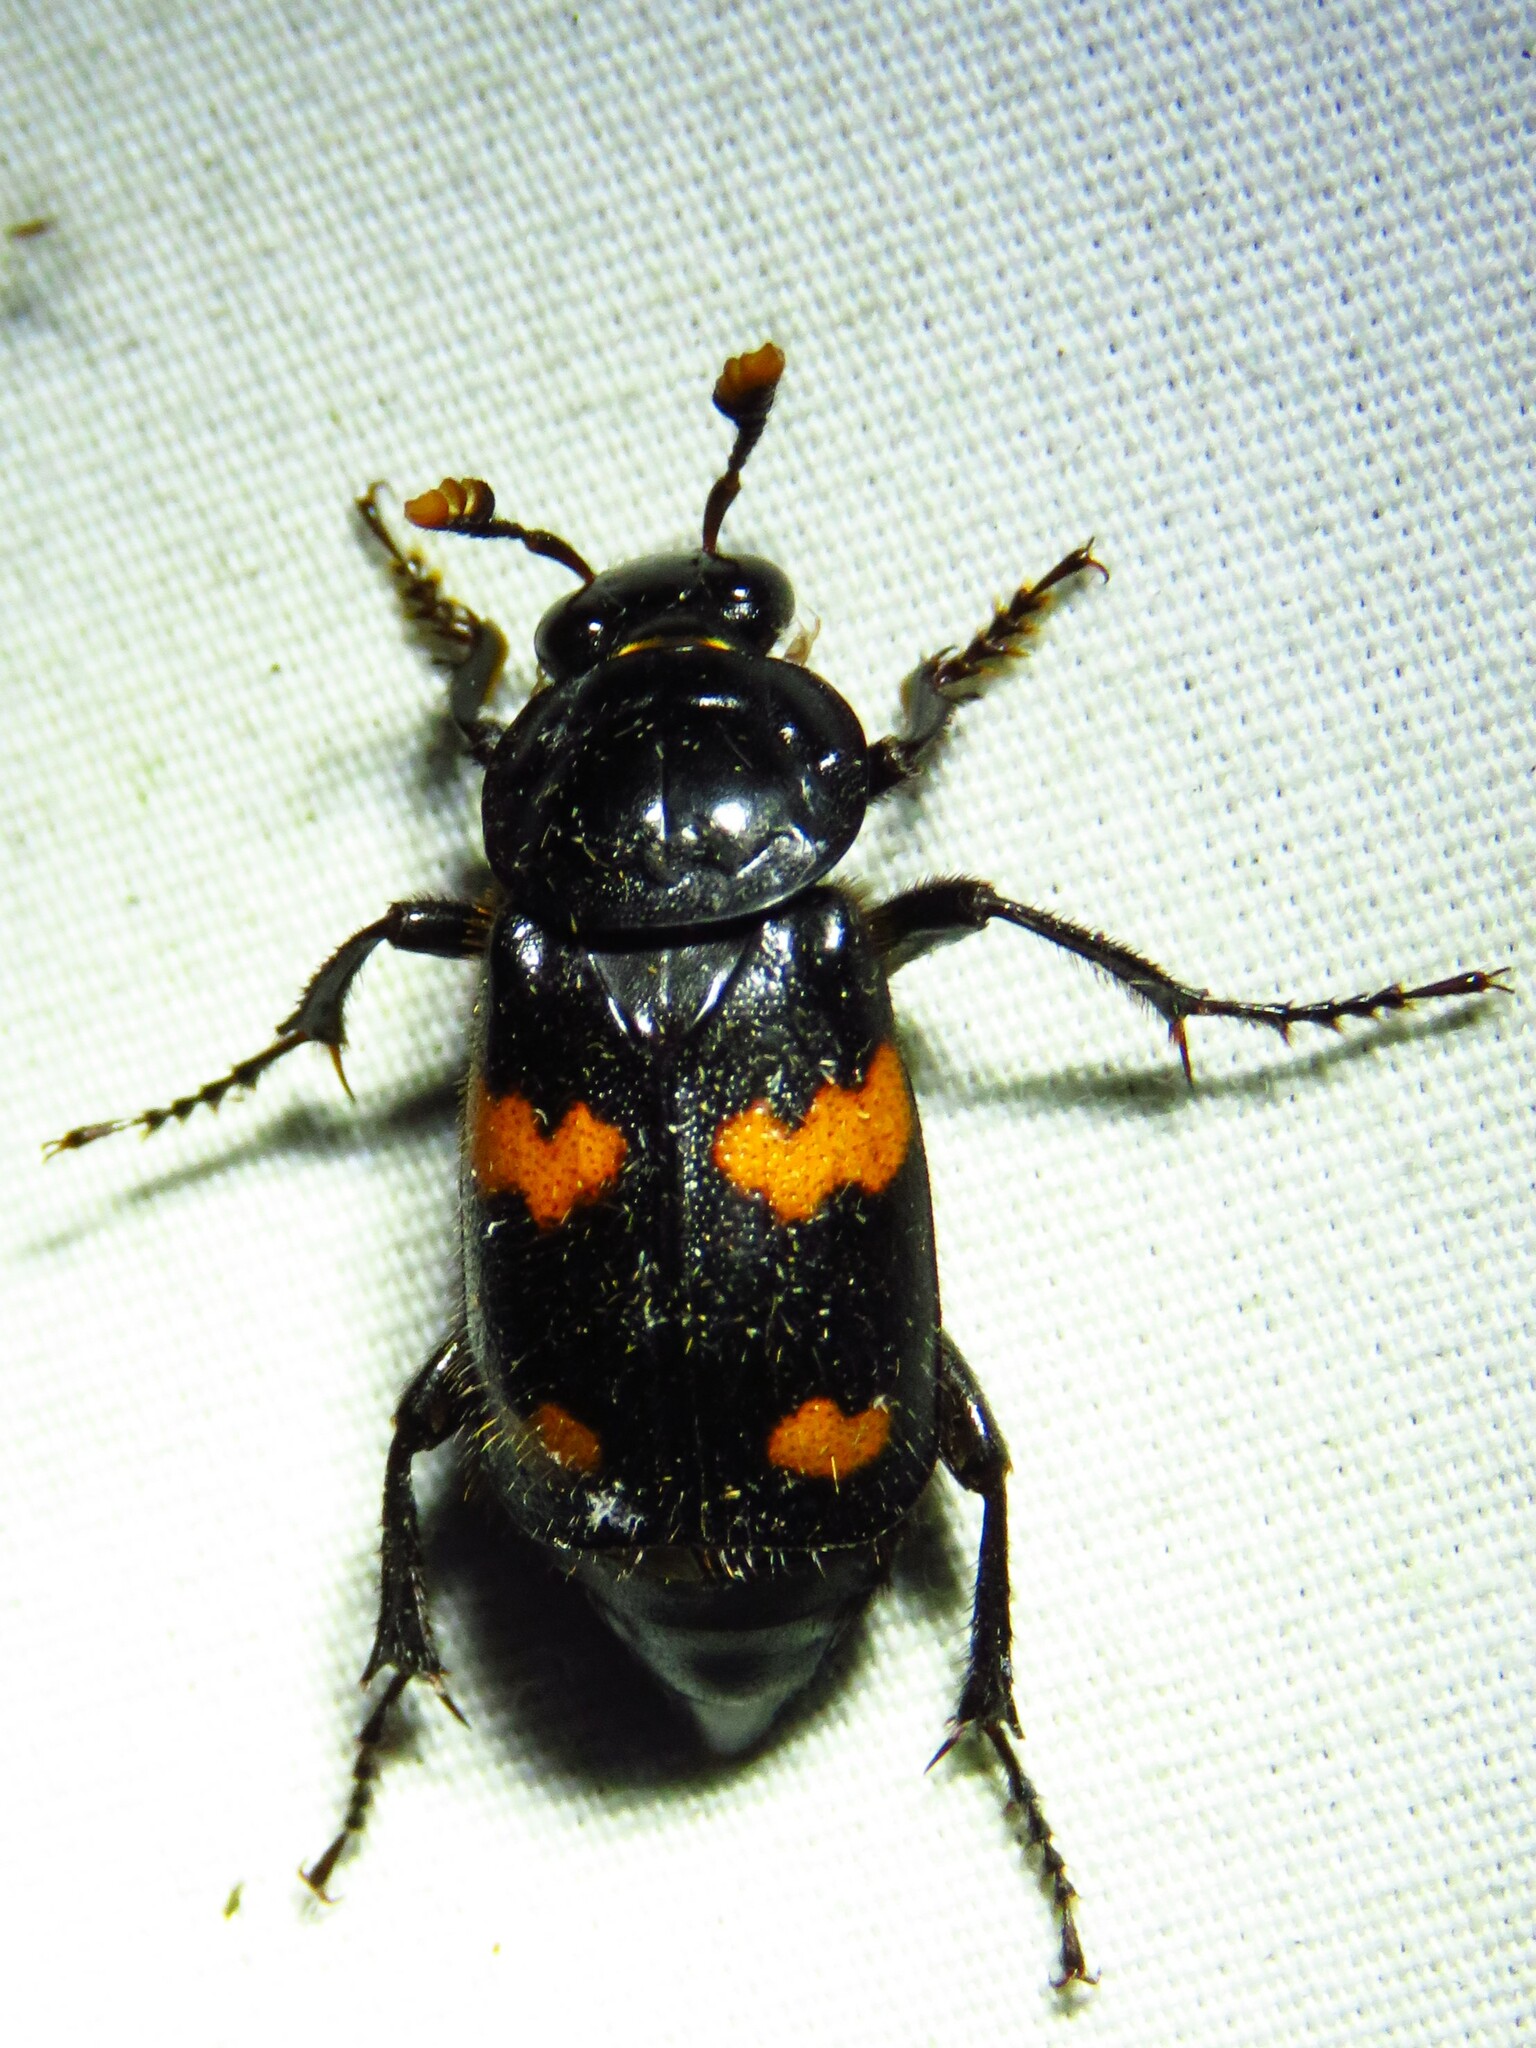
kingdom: Animalia
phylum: Arthropoda
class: Insecta
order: Coleoptera
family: Staphylinidae
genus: Nicrophorus
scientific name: Nicrophorus orbicollis
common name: Roundneck sexton beetle
